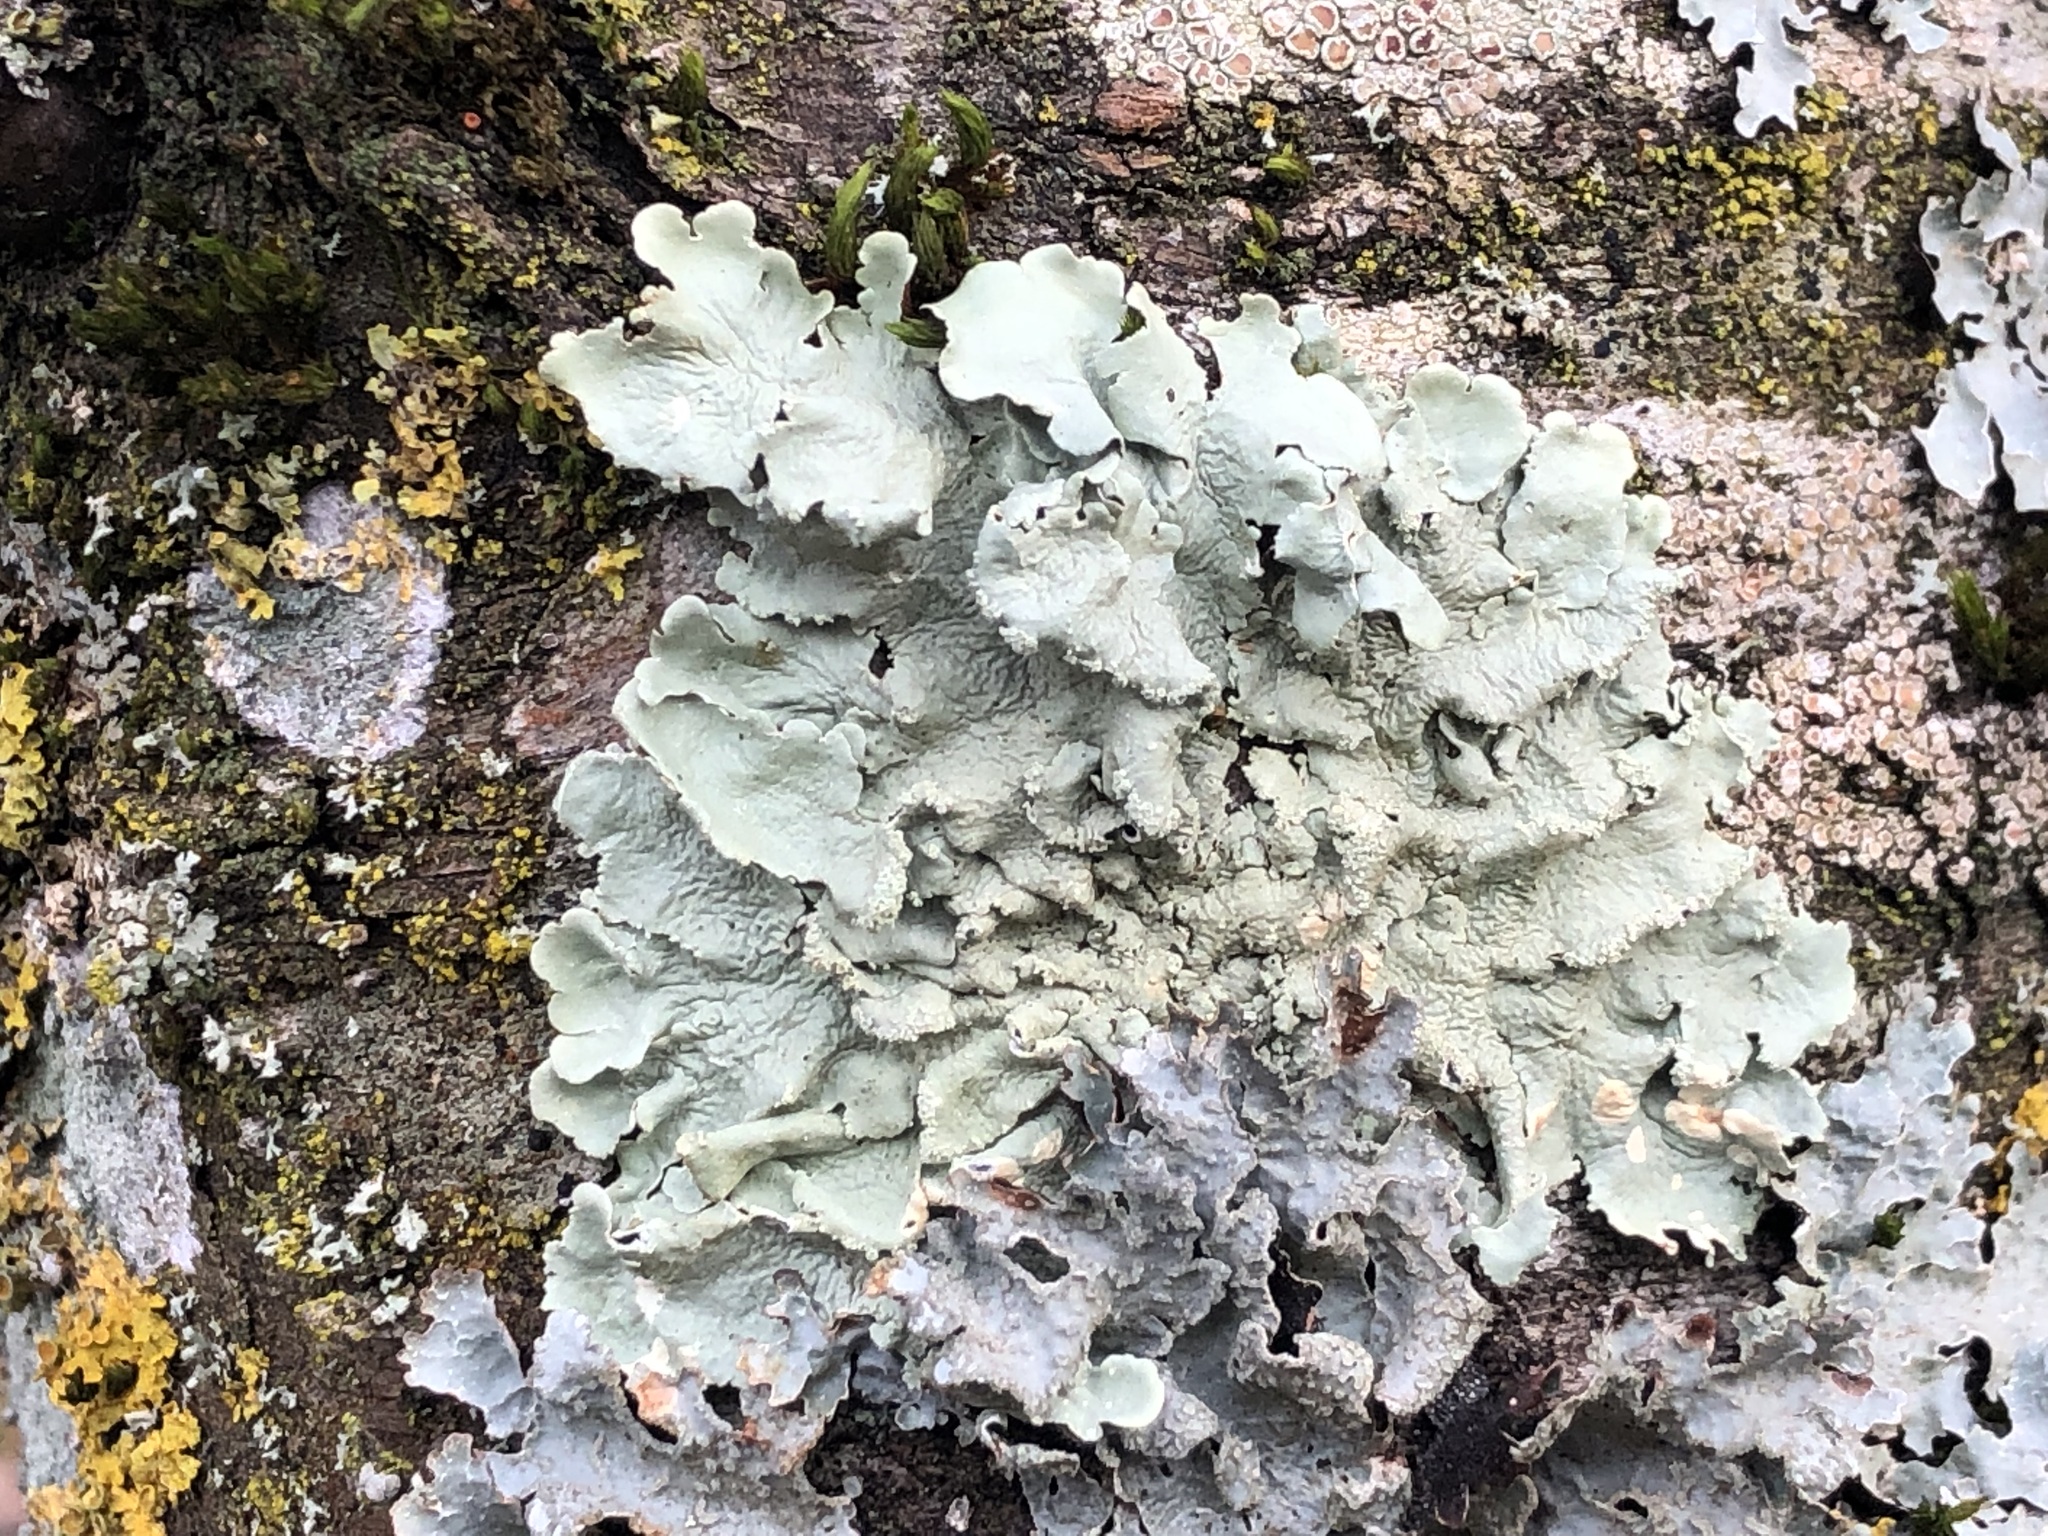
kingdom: Fungi
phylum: Ascomycota
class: Lecanoromycetes
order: Lecanorales
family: Parmeliaceae
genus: Flavoparmelia
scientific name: Flavoparmelia caperata
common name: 40-mile per hour lichen
